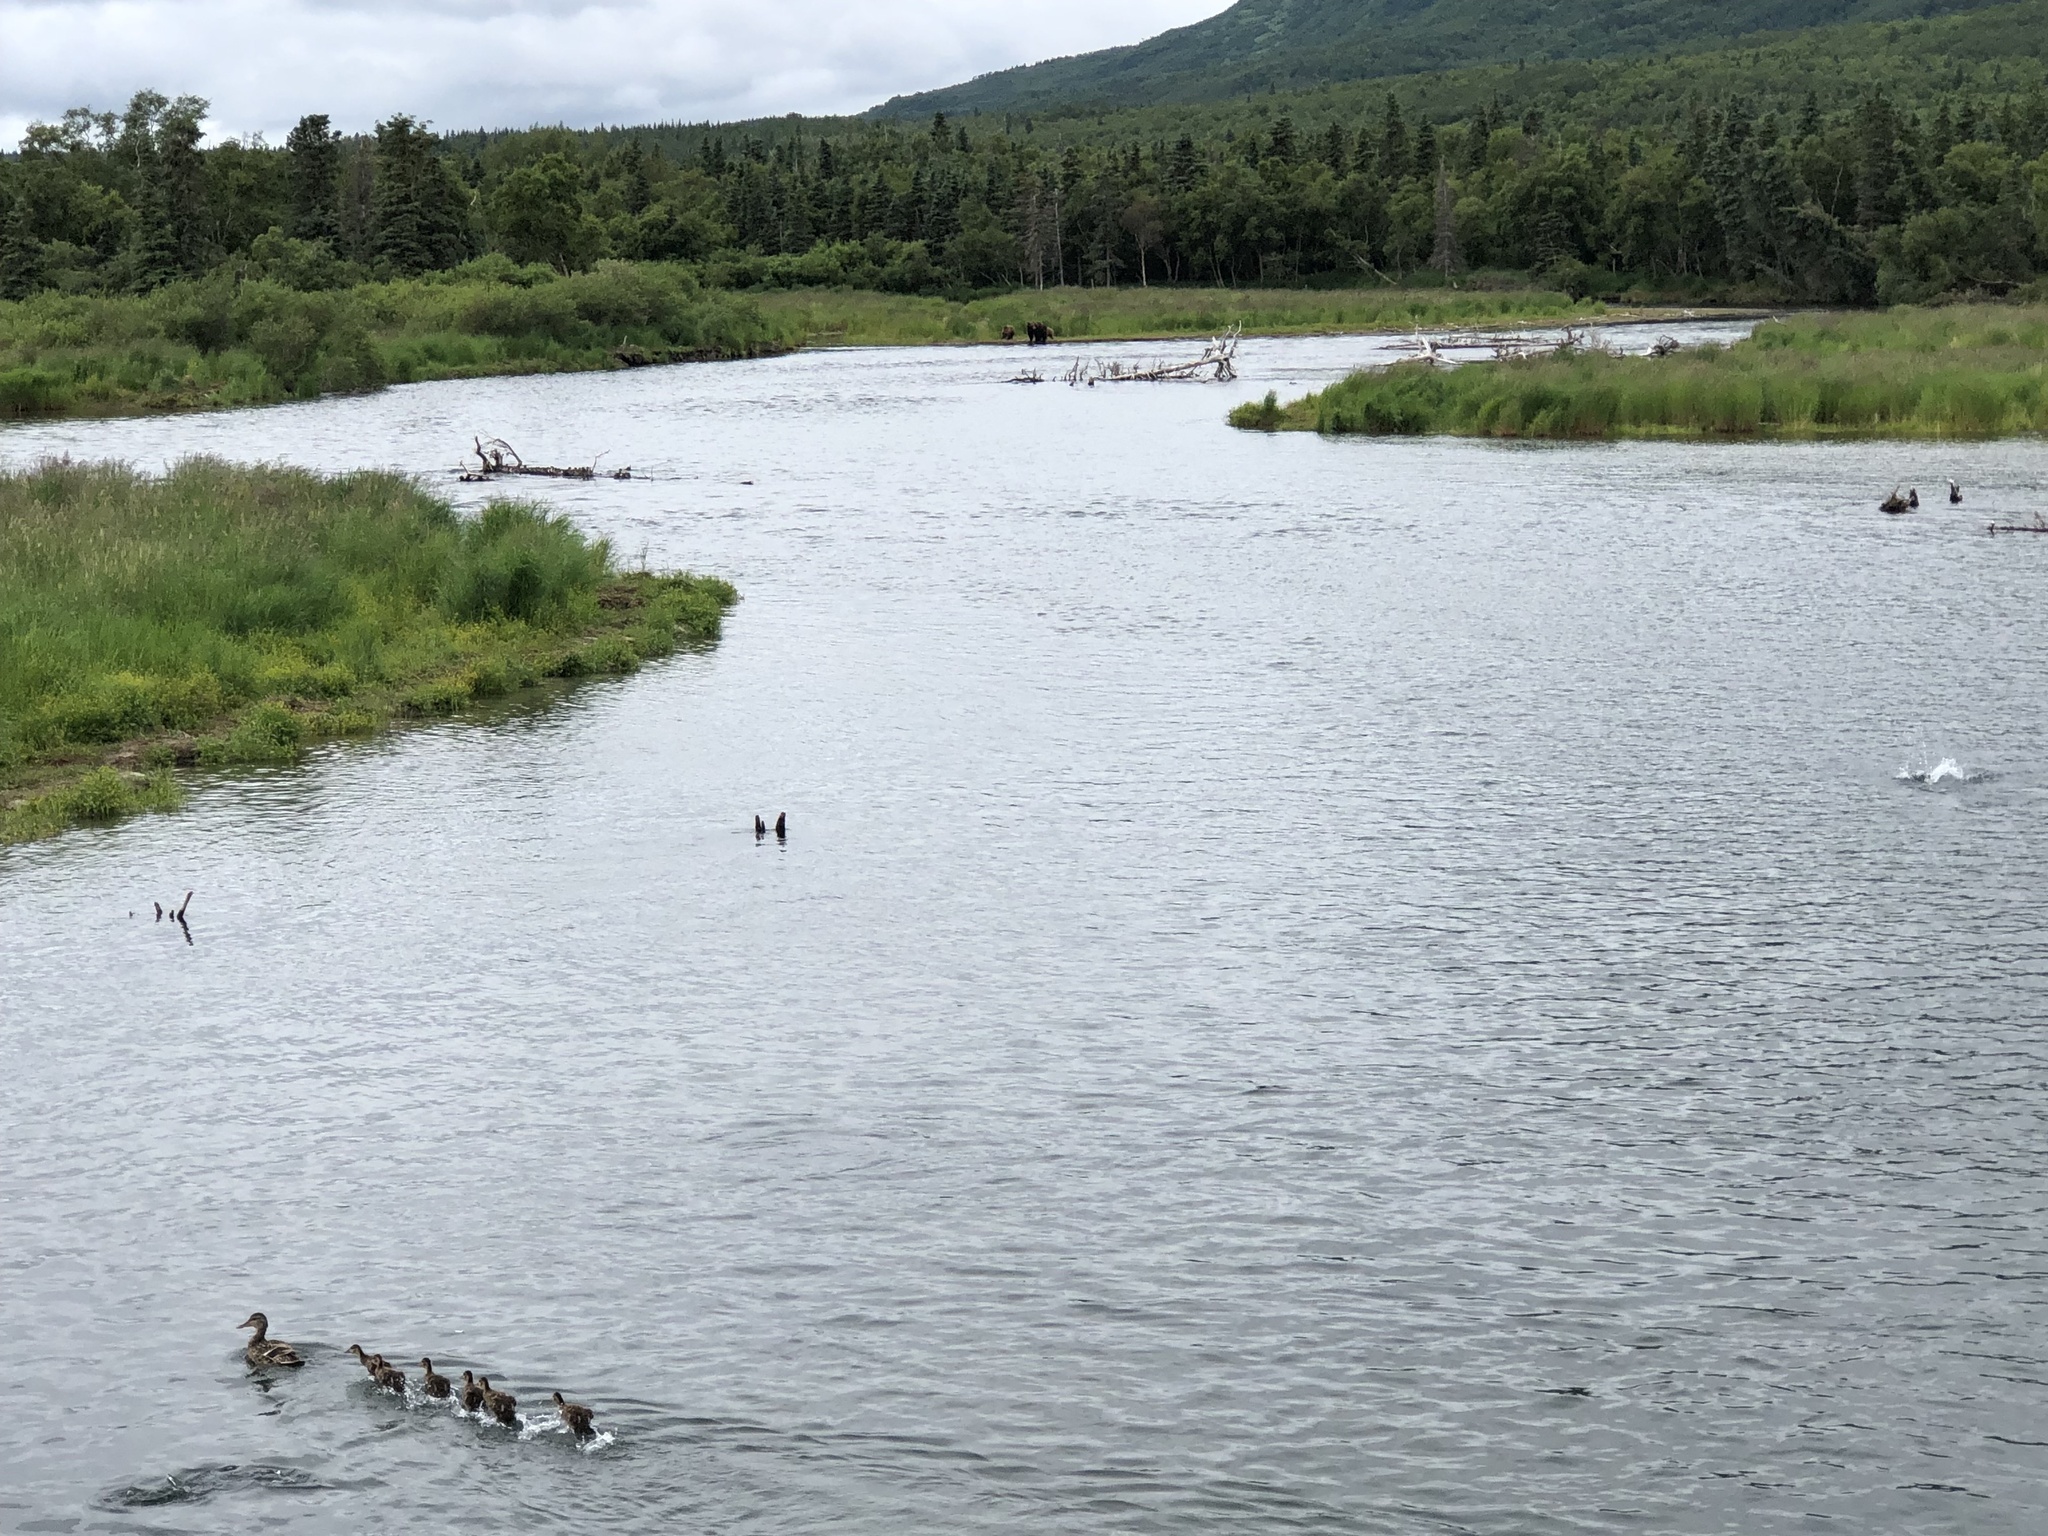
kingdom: Animalia
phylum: Chordata
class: Aves
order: Anseriformes
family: Anatidae
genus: Anas
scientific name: Anas platyrhynchos
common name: Mallard
